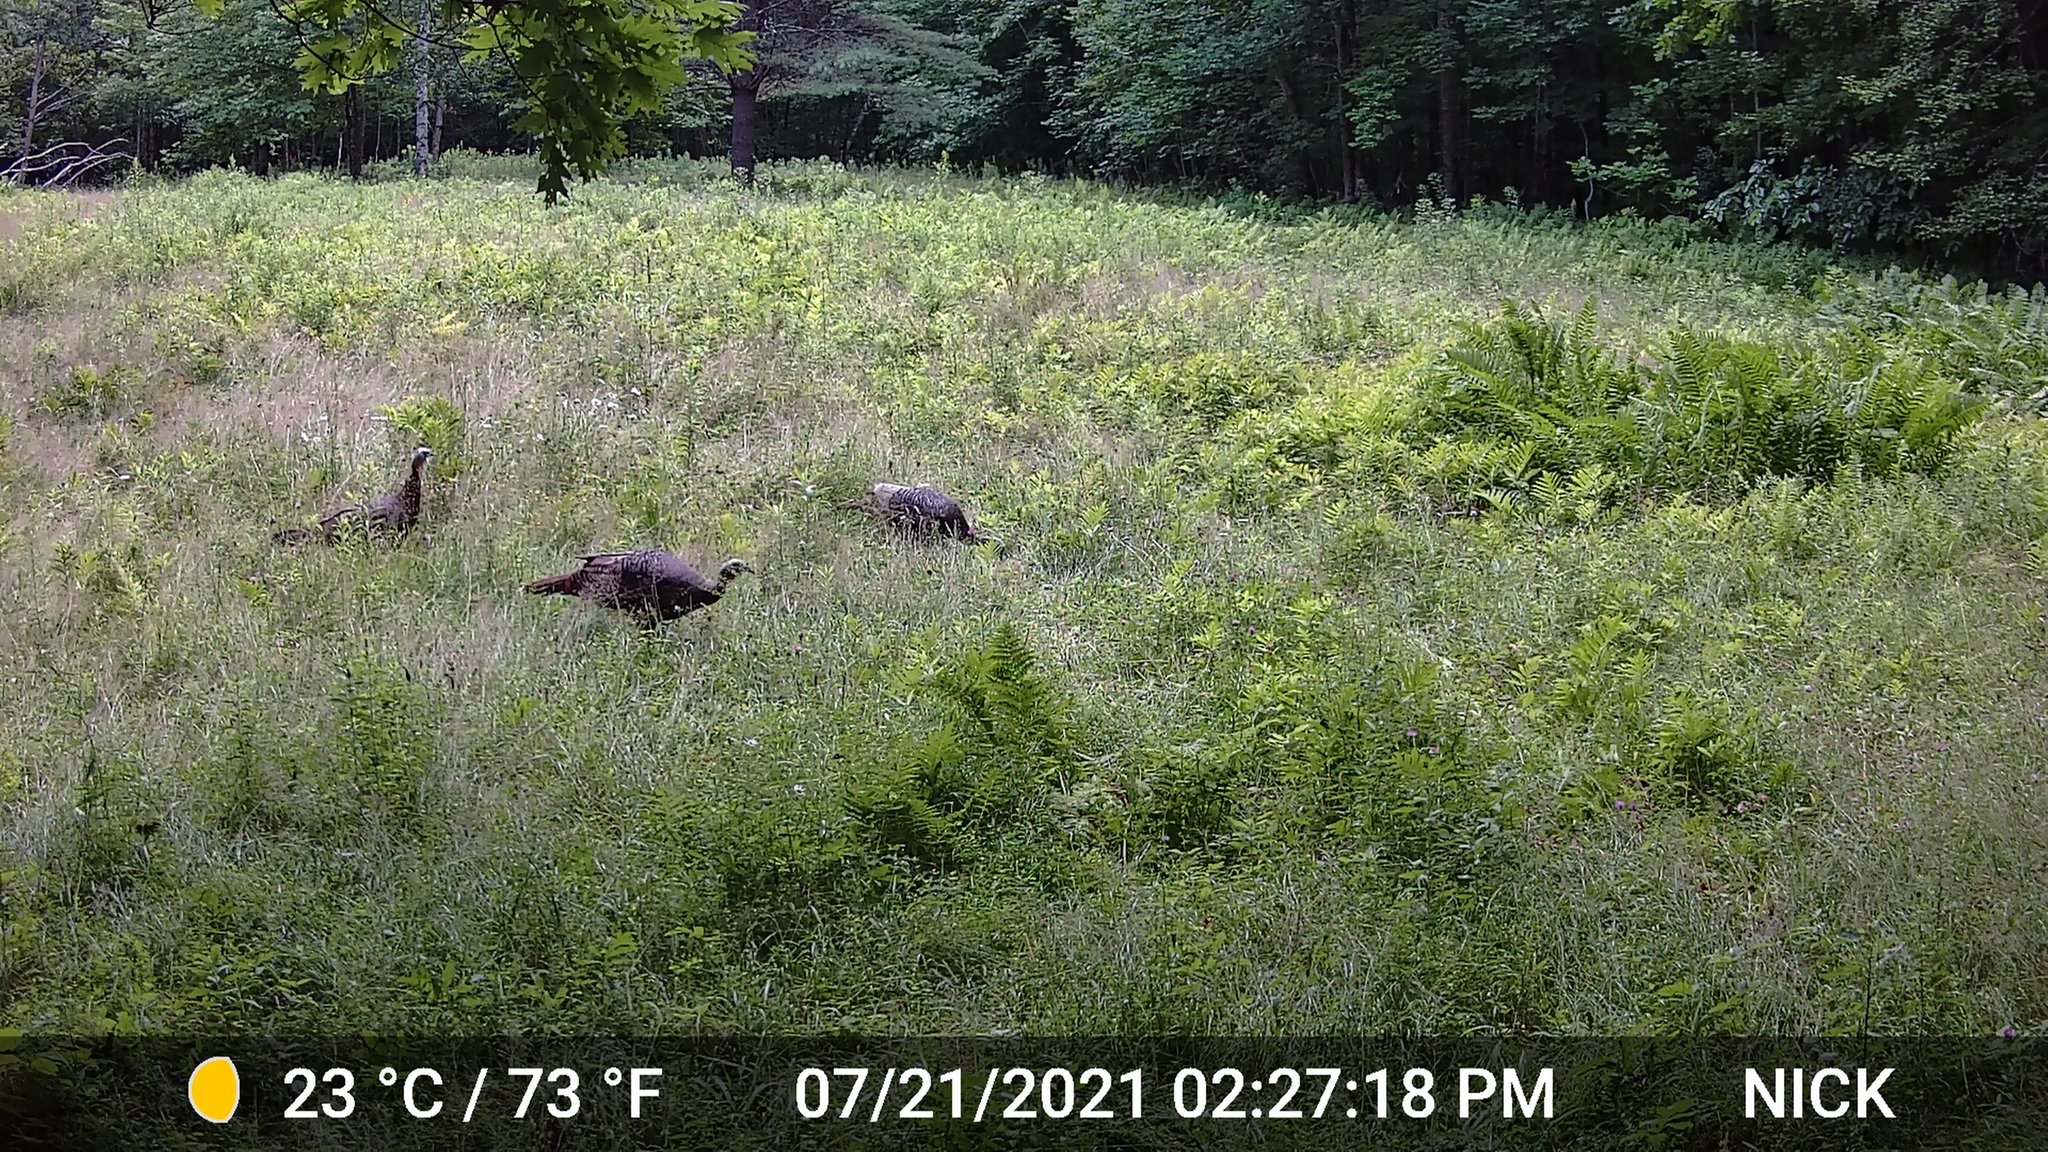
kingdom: Animalia
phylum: Chordata
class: Aves
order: Galliformes
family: Phasianidae
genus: Meleagris
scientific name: Meleagris gallopavo
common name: Wild turkey
